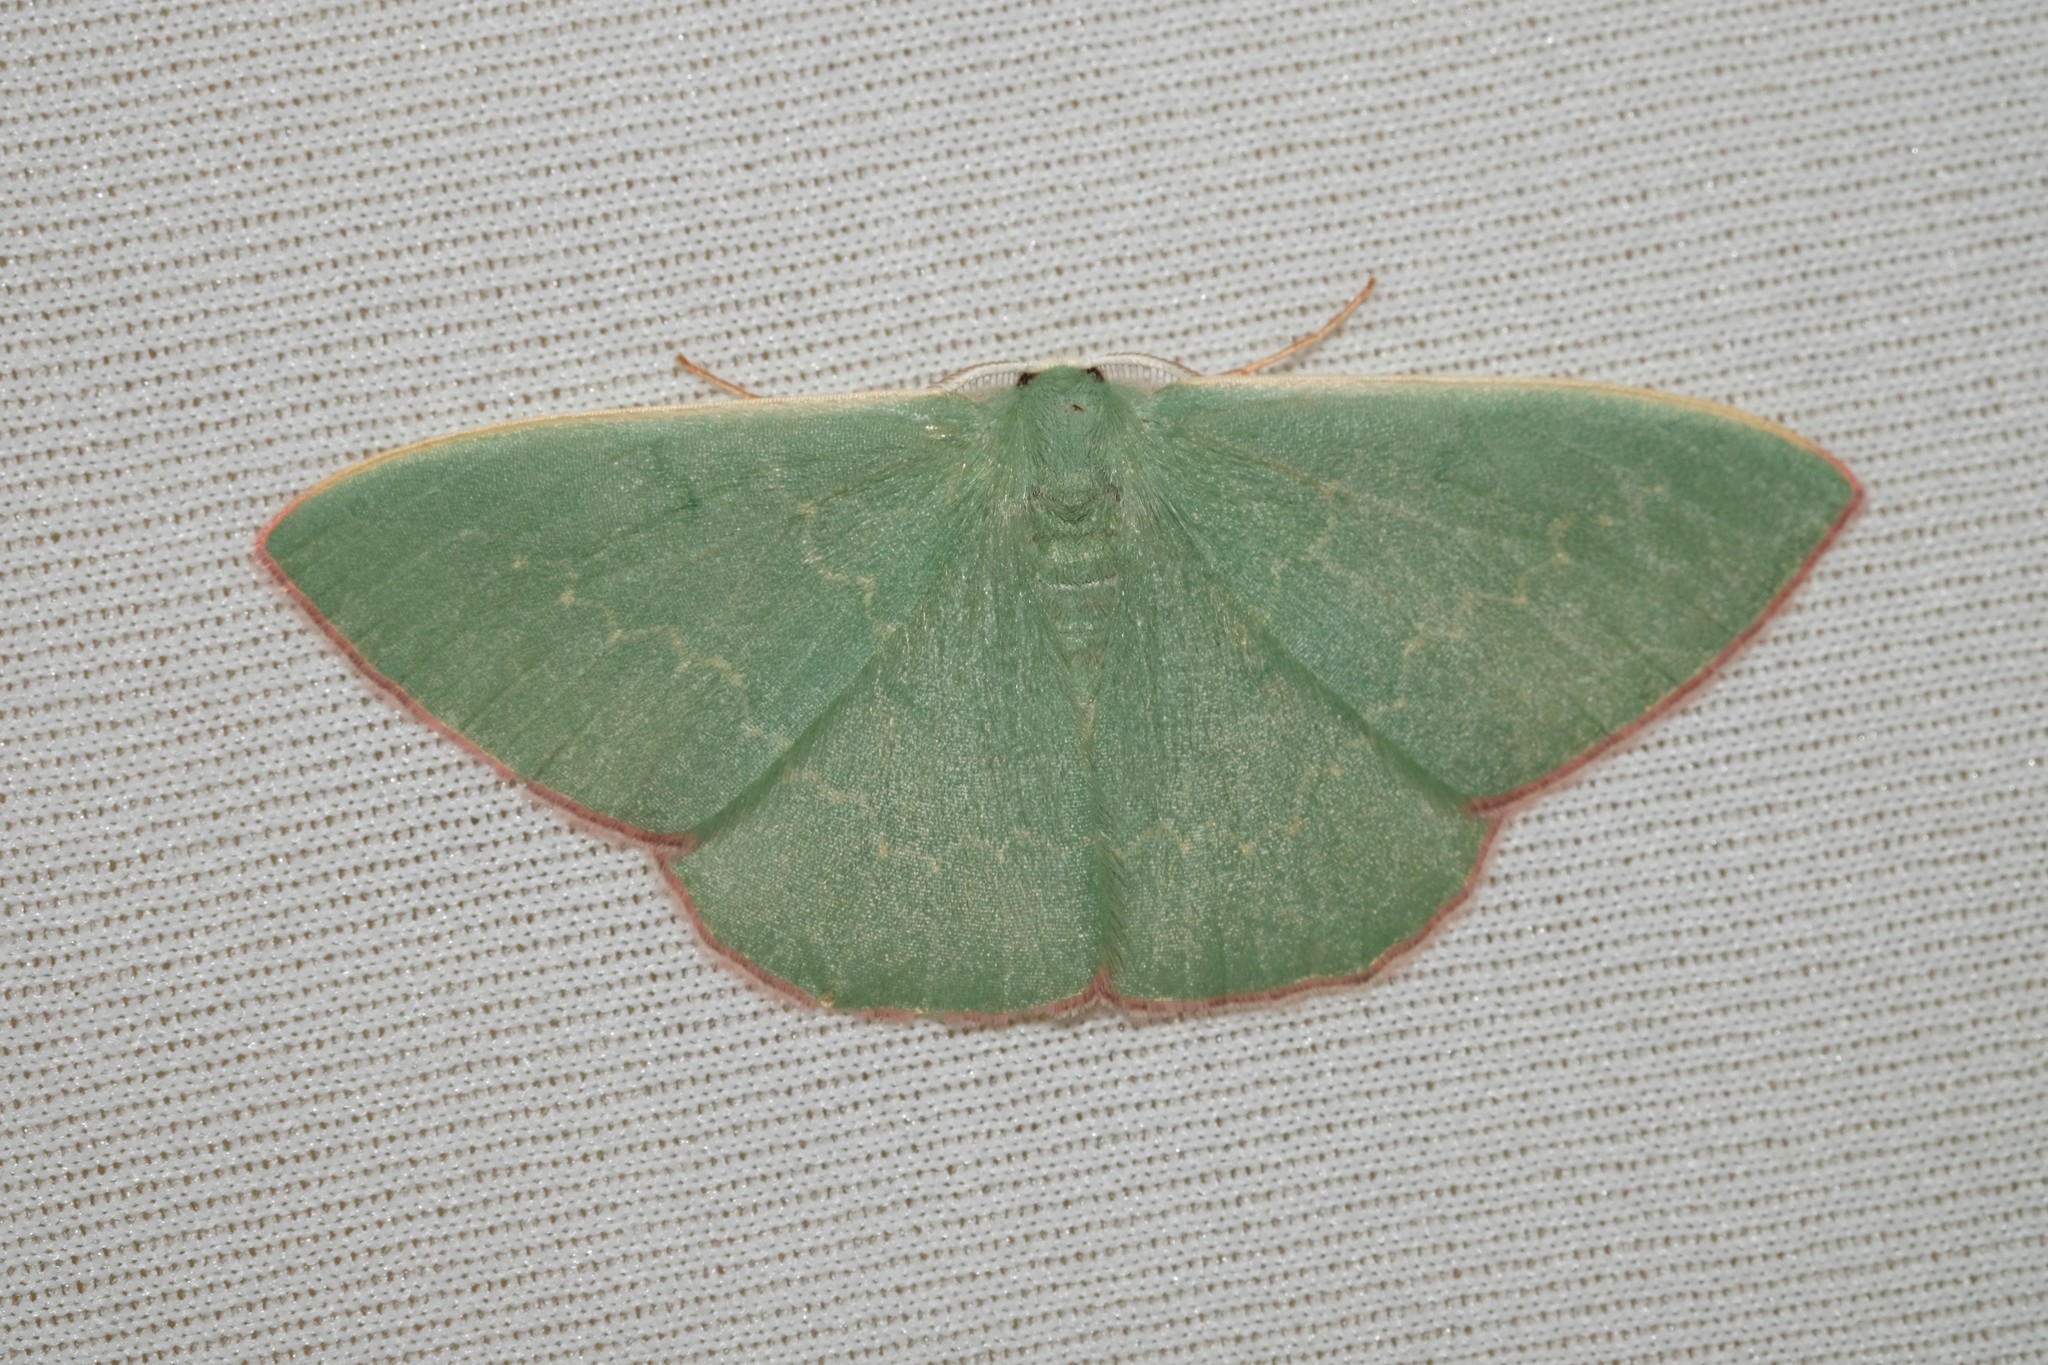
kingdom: Animalia
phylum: Arthropoda
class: Insecta
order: Lepidoptera
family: Geometridae
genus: Prasinocyma
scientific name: Prasinocyma semicrocea
